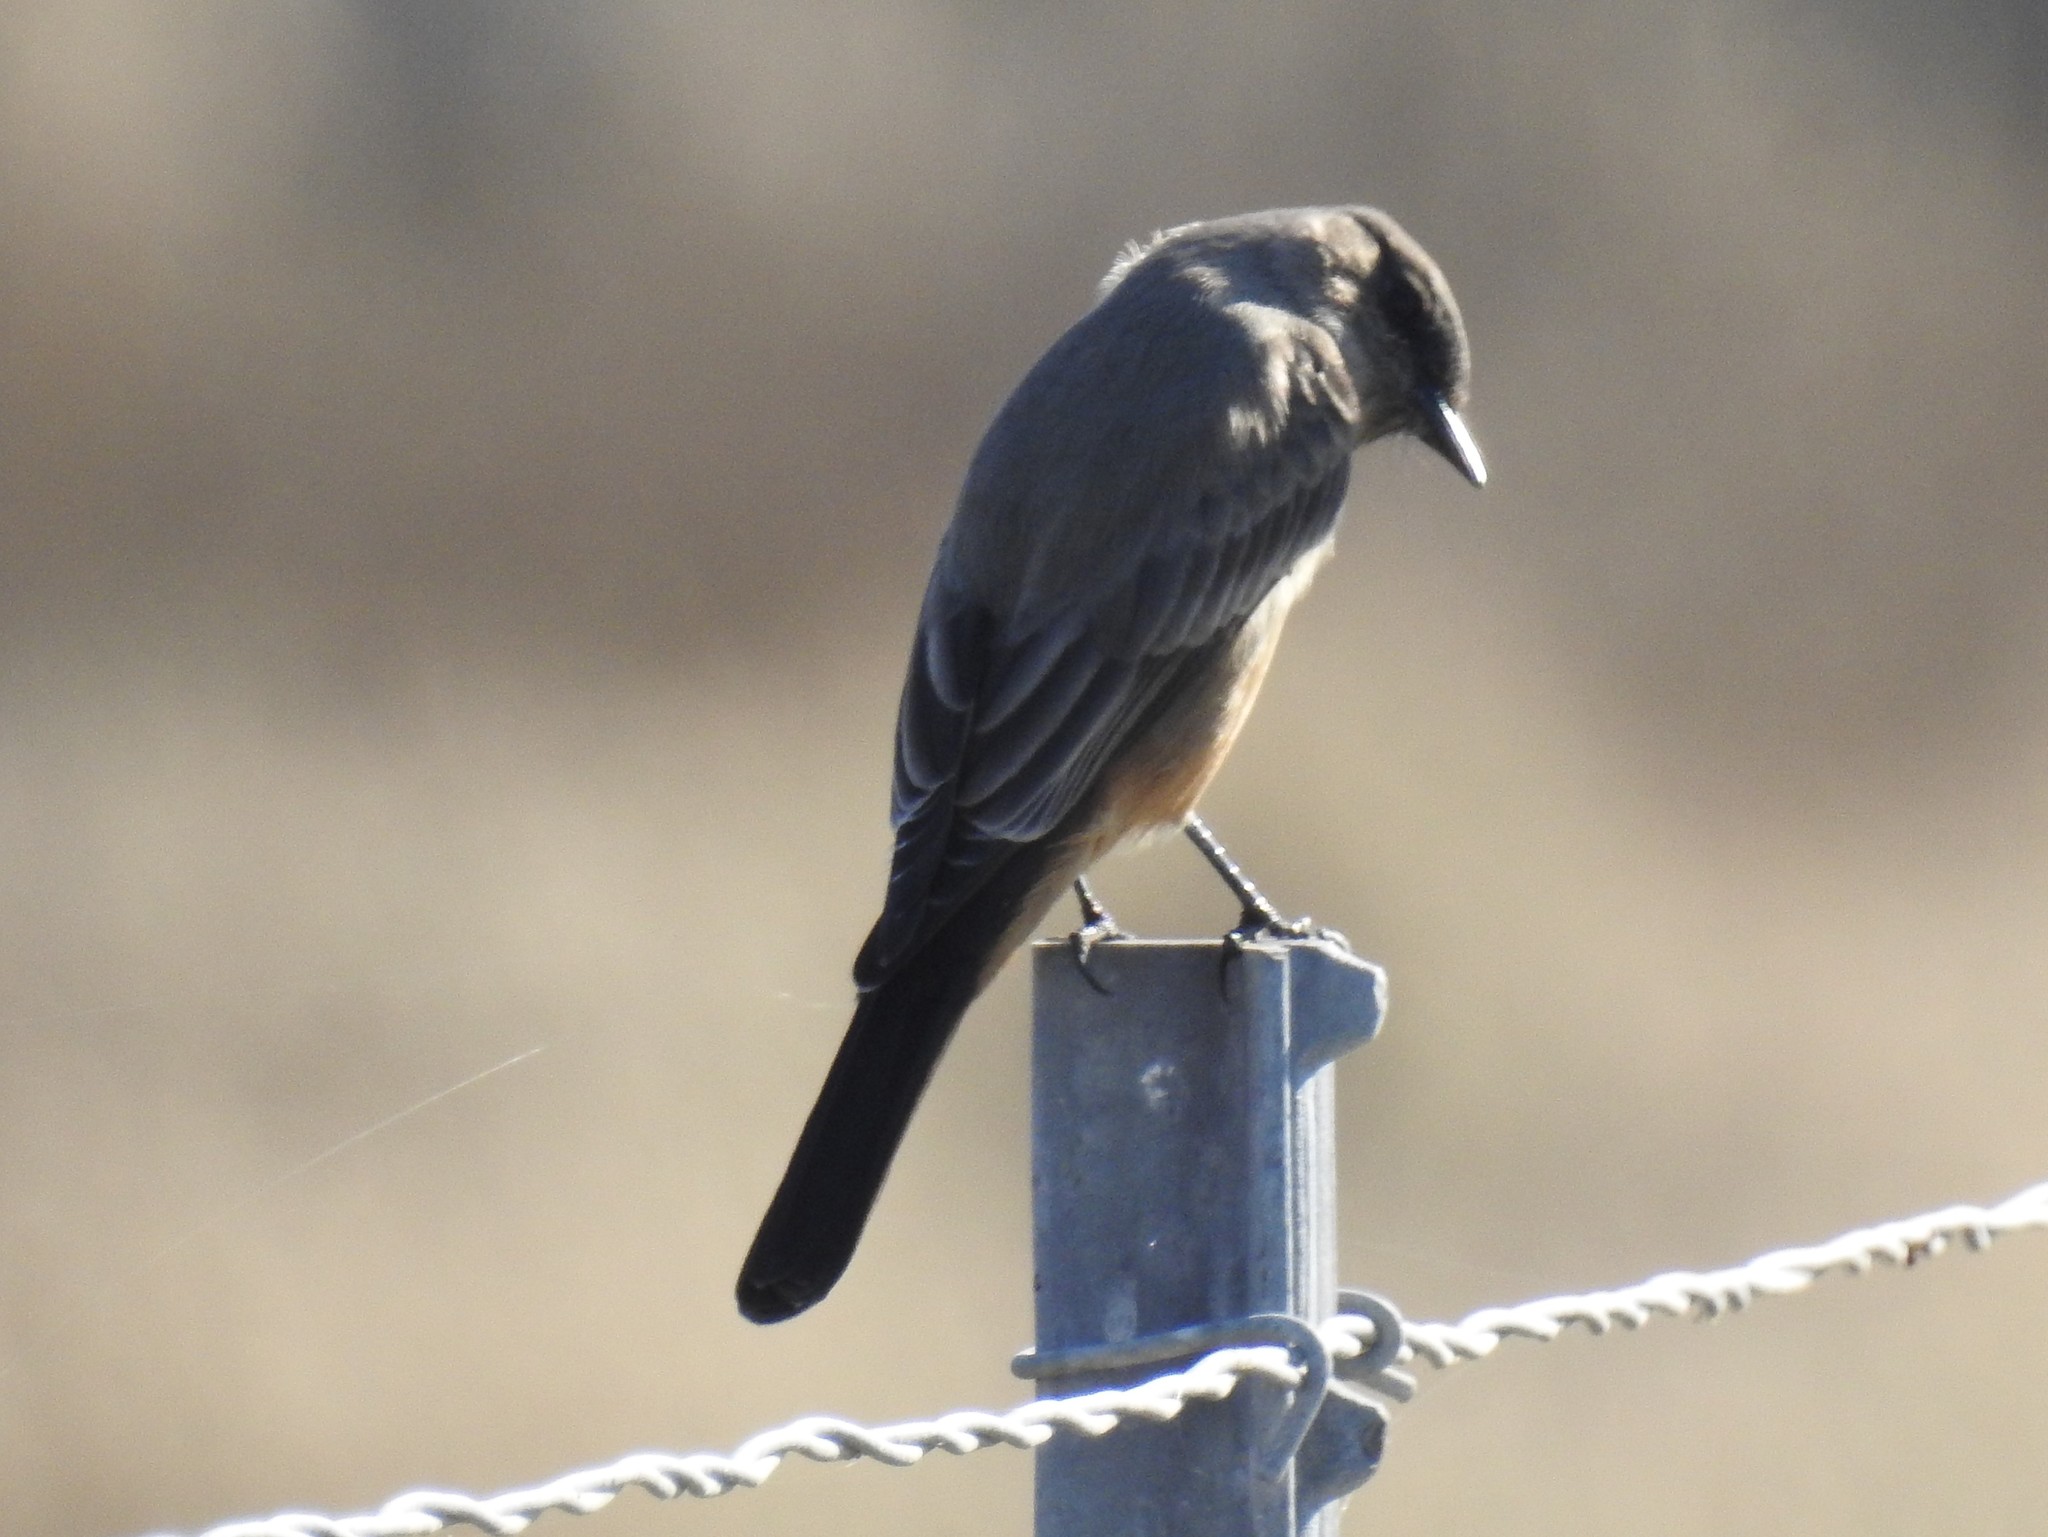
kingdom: Animalia
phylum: Chordata
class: Aves
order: Passeriformes
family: Tyrannidae
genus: Sayornis
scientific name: Sayornis saya
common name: Say's phoebe
